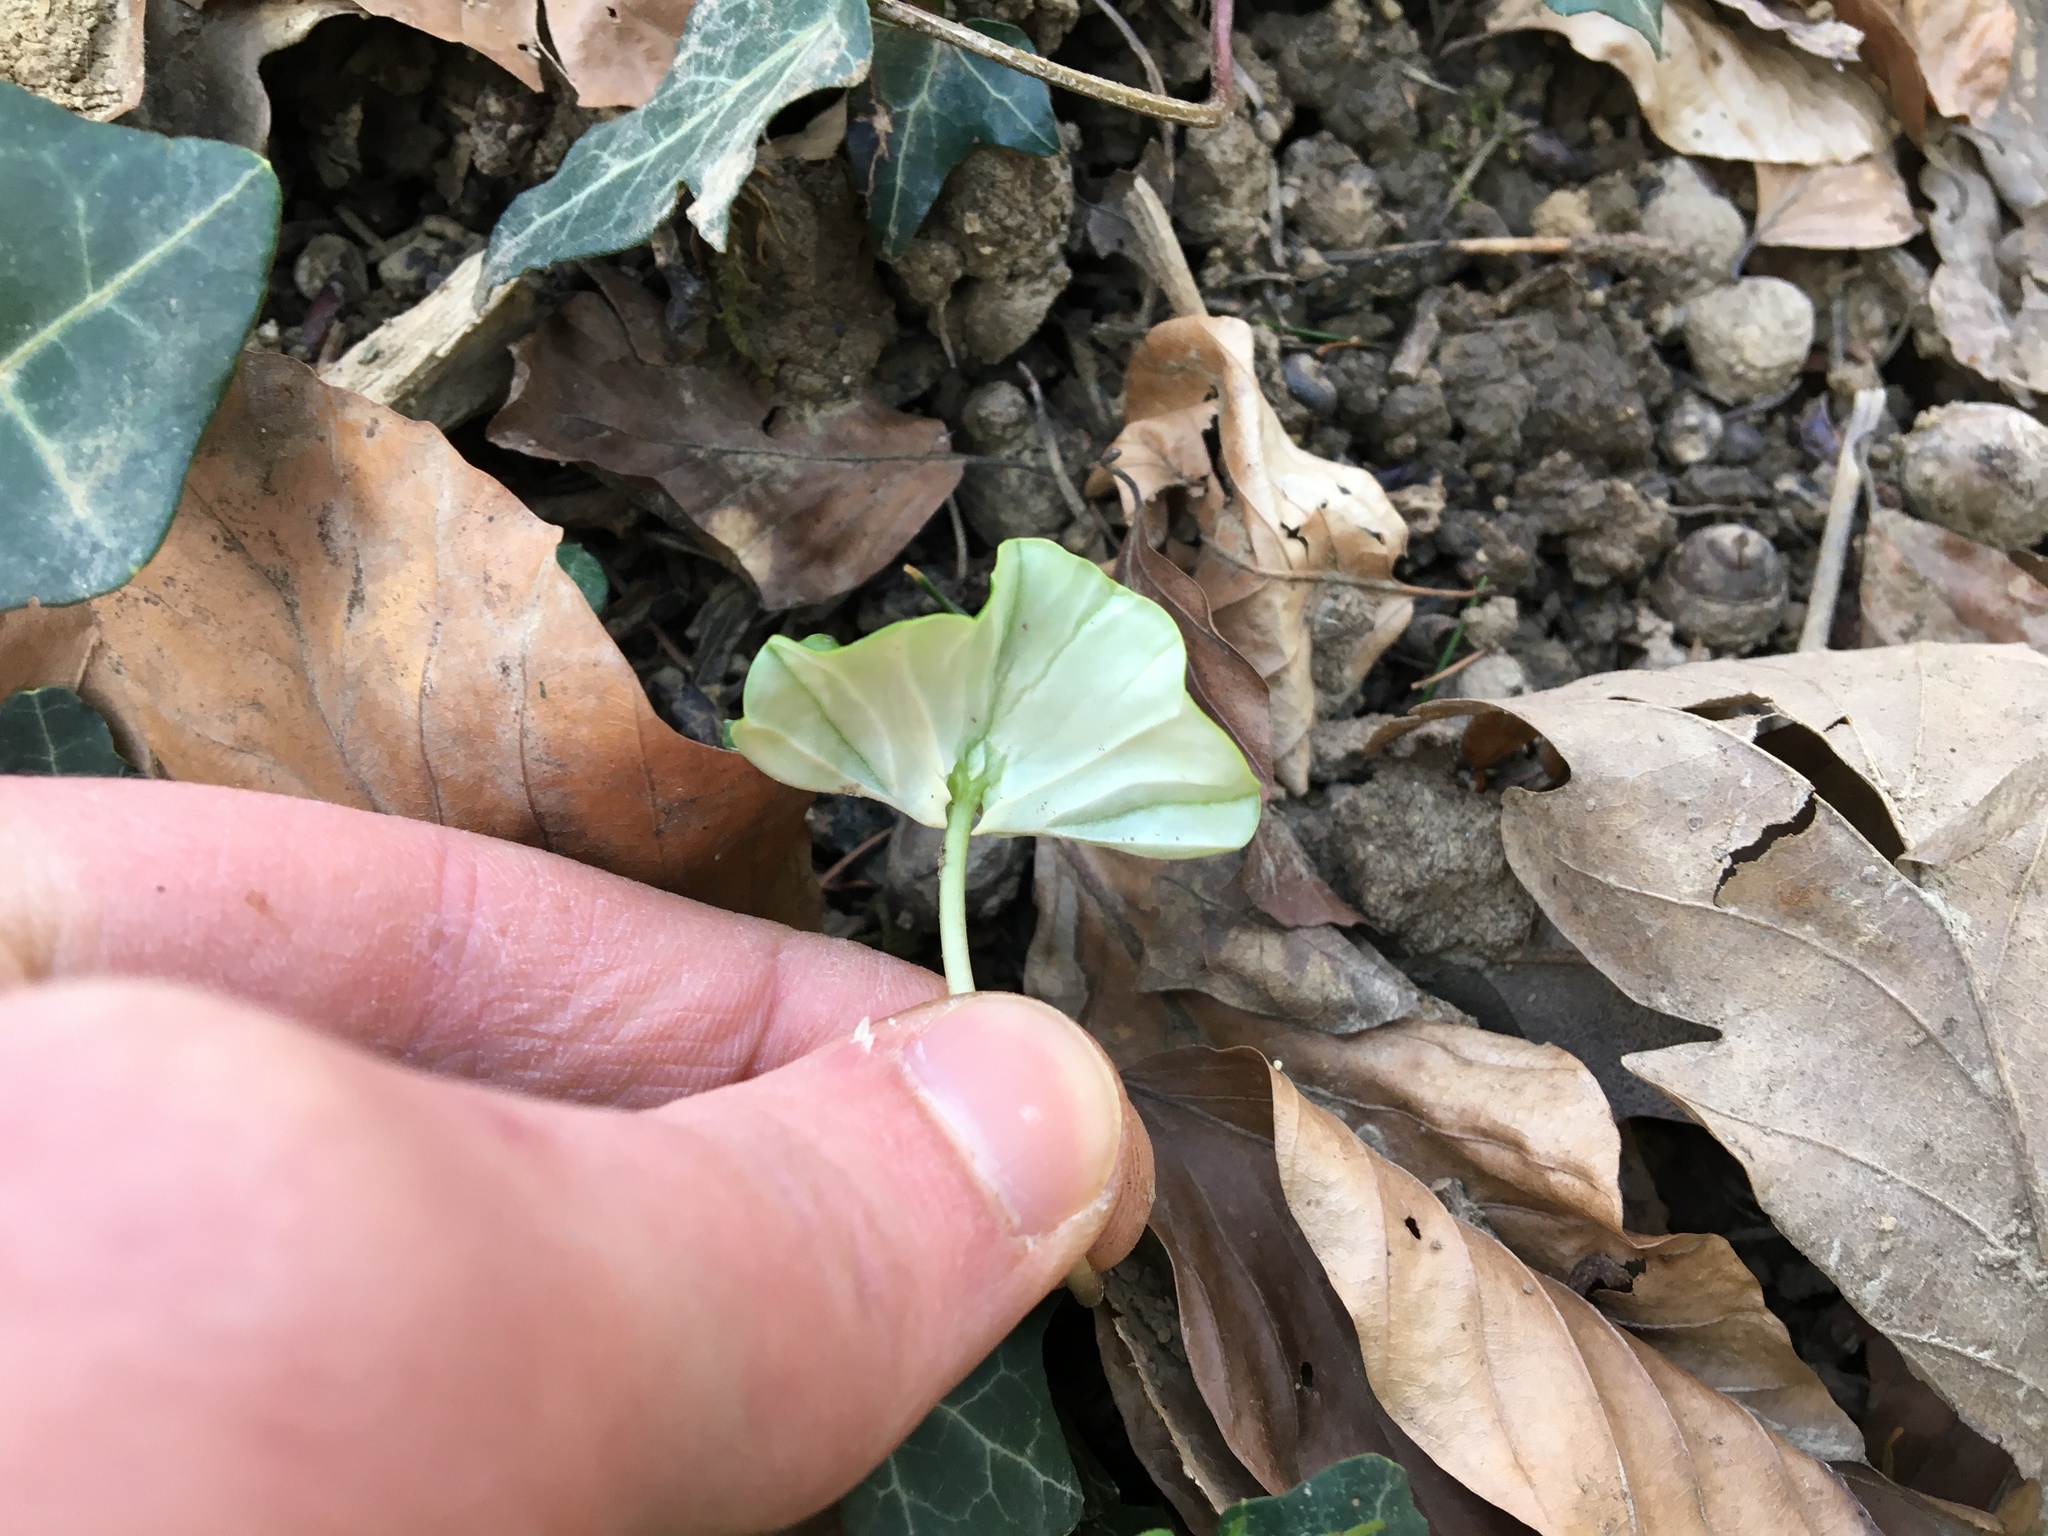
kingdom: Plantae
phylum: Tracheophyta
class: Magnoliopsida
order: Fagales
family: Fagaceae
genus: Fagus
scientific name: Fagus sylvatica
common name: Beech
